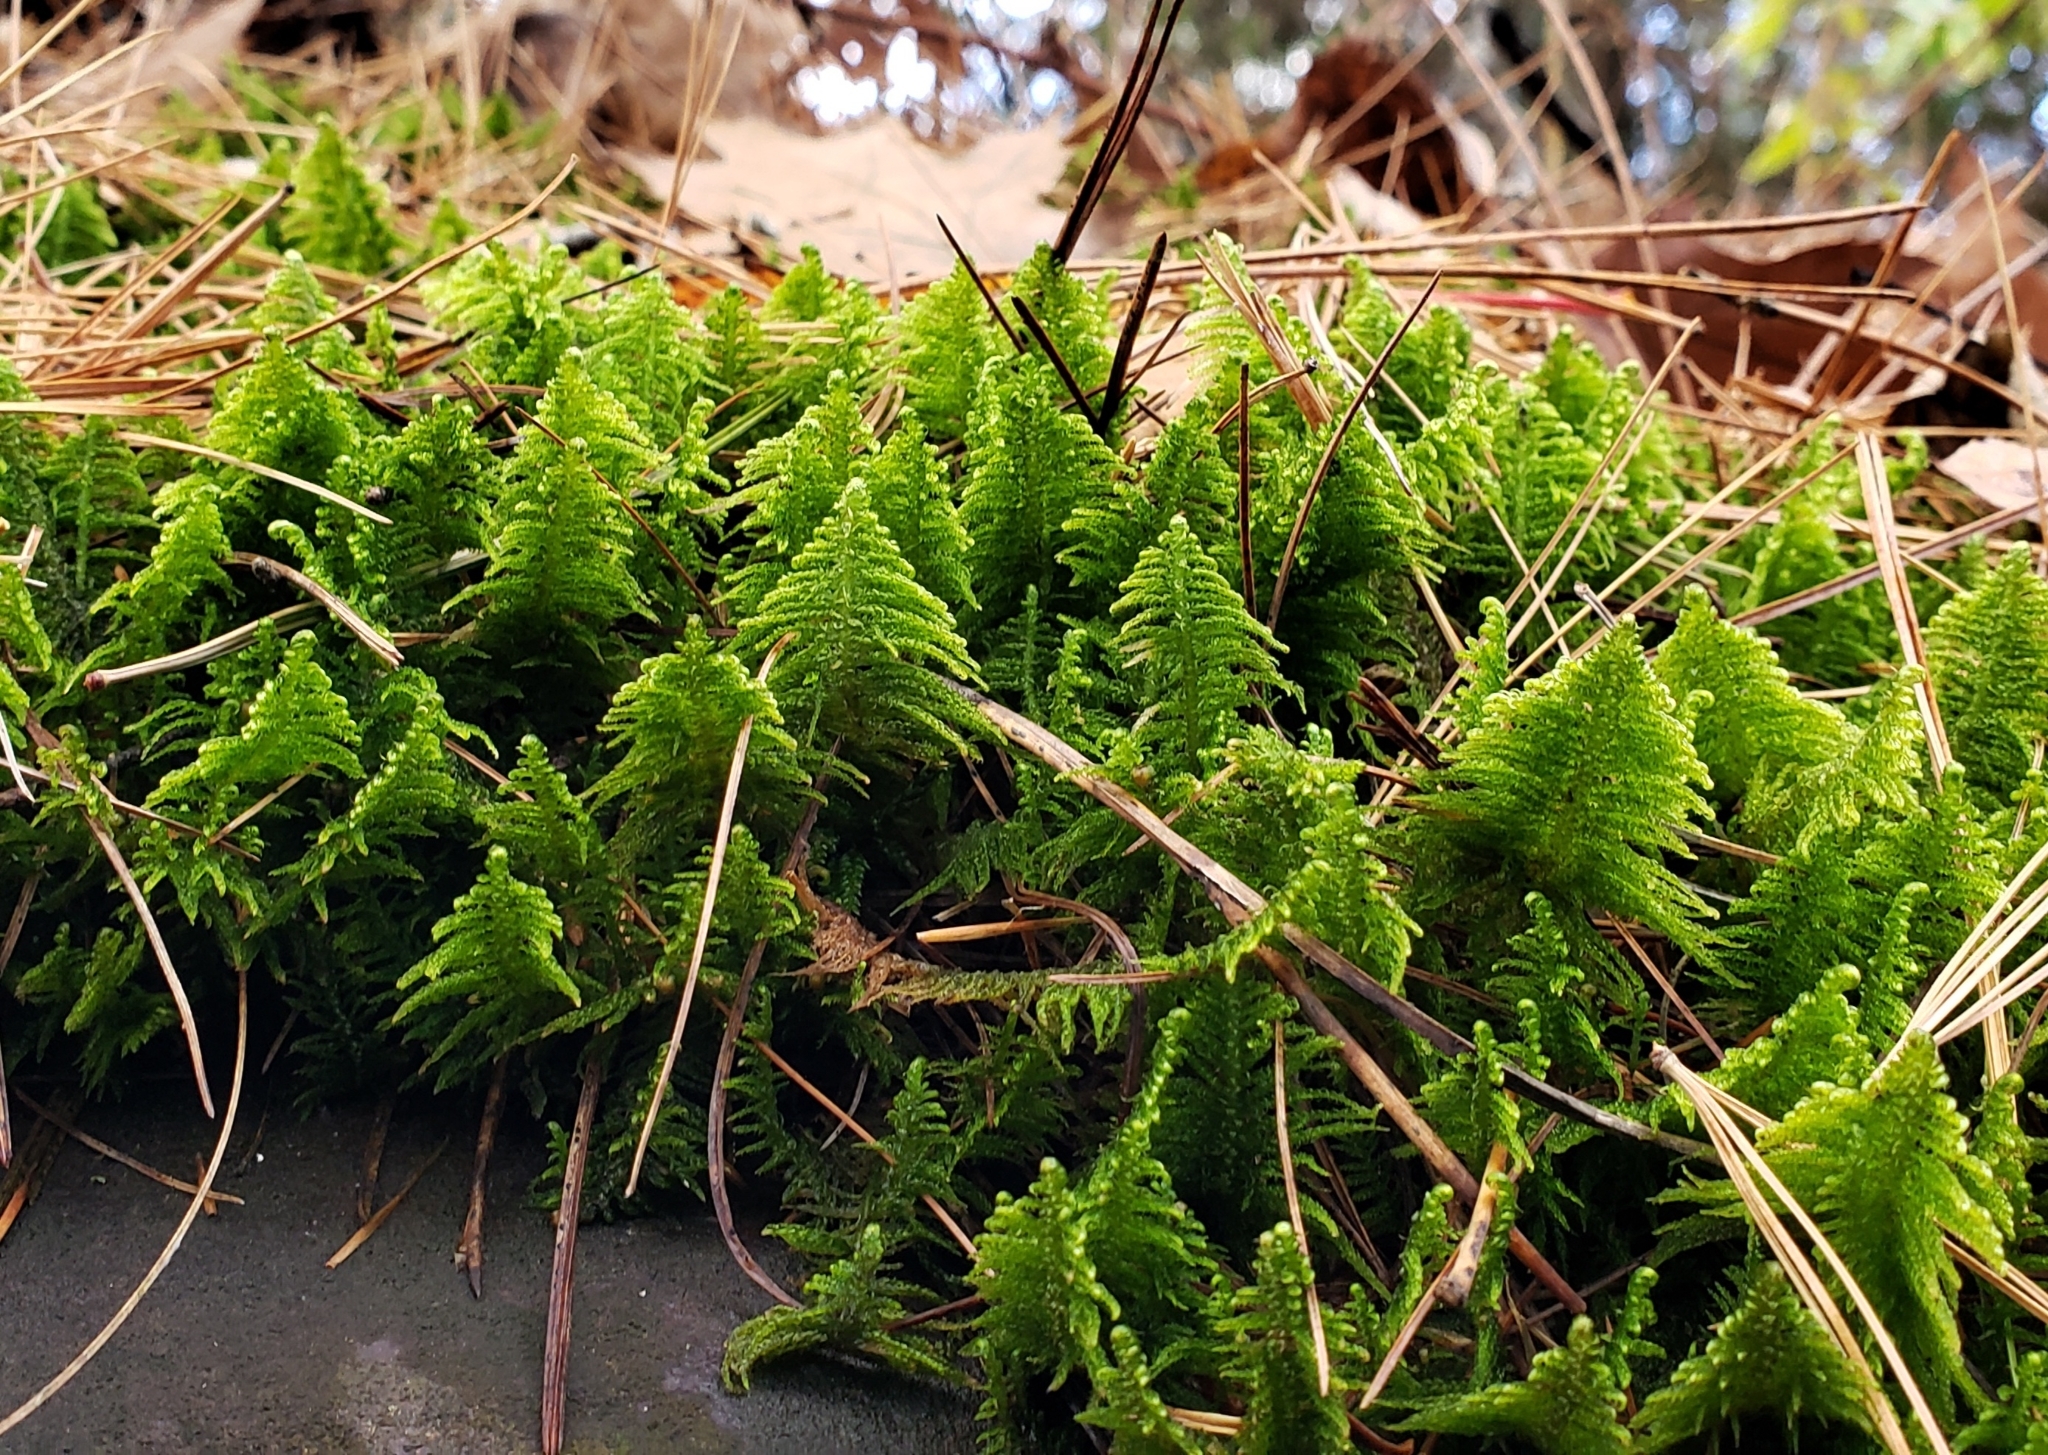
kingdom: Plantae
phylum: Bryophyta
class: Bryopsida
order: Hypnales
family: Pylaisiaceae
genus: Ptilium
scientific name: Ptilium crista-castrensis
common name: Knight's plume moss
